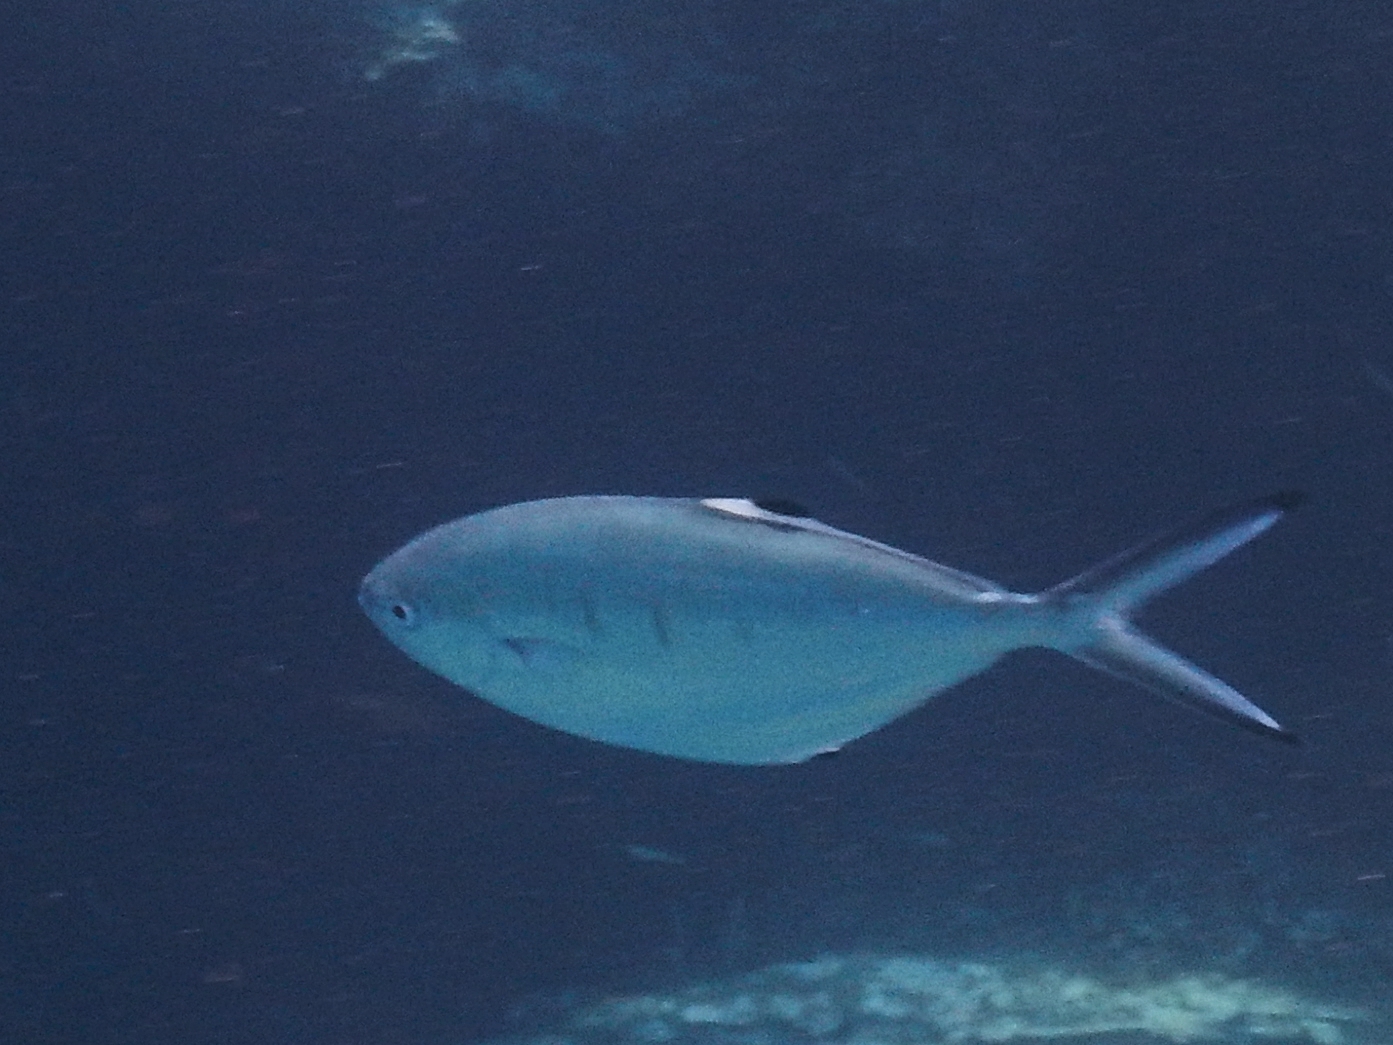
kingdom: Animalia
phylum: Chordata
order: Perciformes
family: Carangidae
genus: Trachinotus
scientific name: Trachinotus ovatus
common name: Pompano
